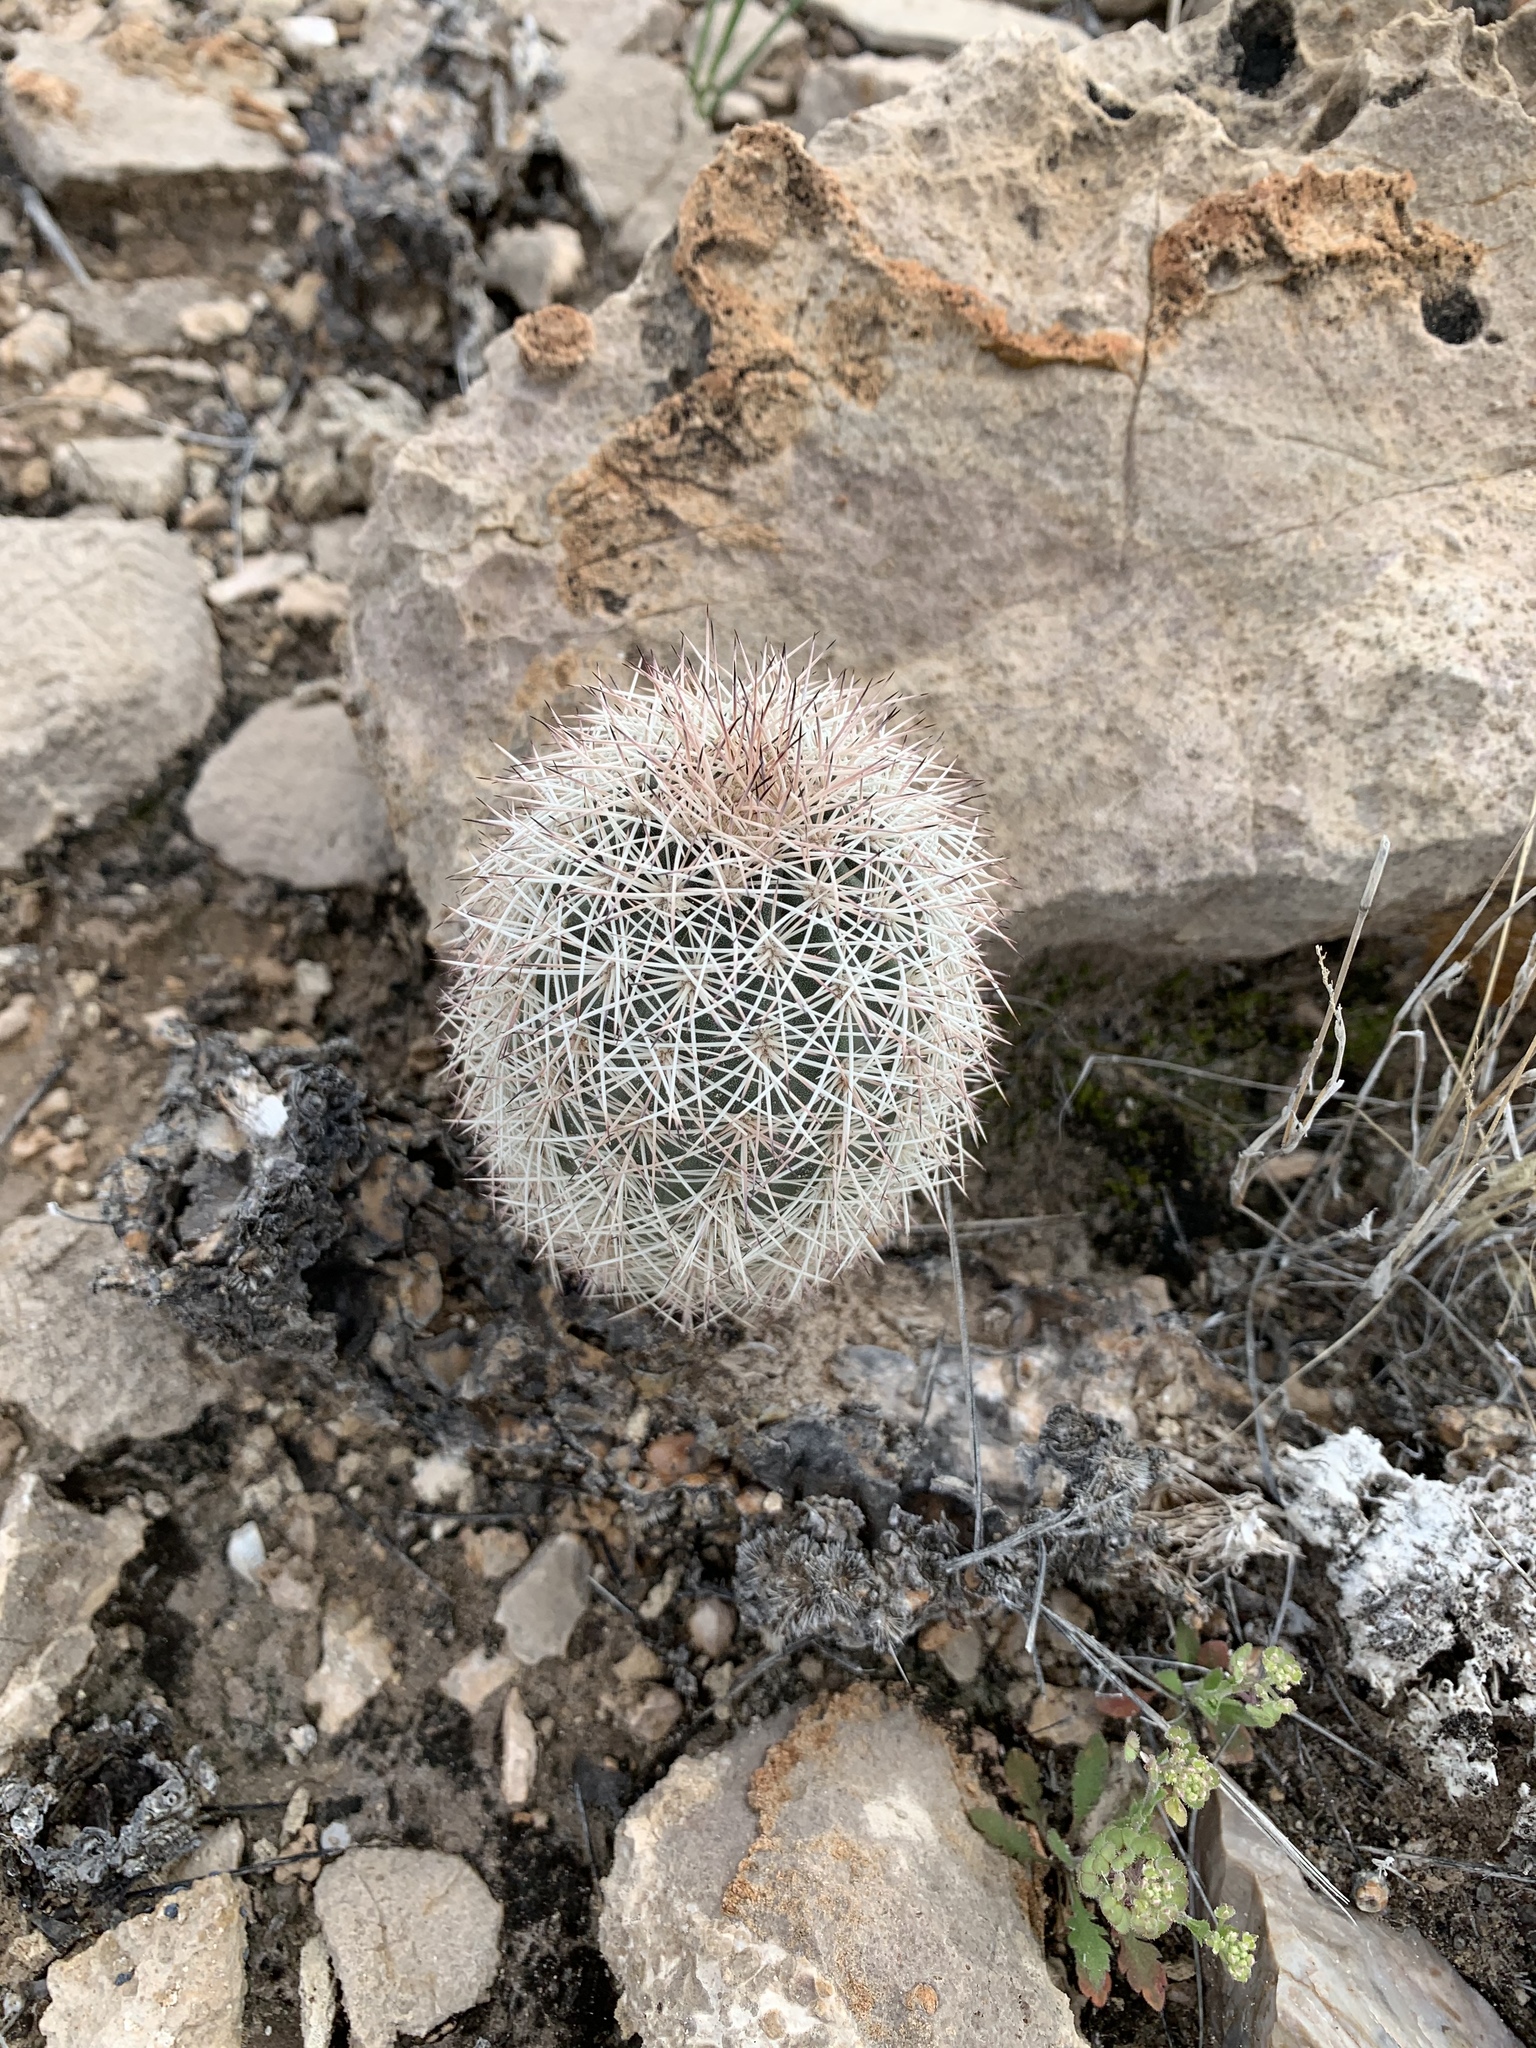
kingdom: Plantae
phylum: Tracheophyta
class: Magnoliopsida
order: Caryophyllales
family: Cactaceae
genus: Echinocereus
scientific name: Echinocereus dasyacanthus
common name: Spiny hedgehog cactus
